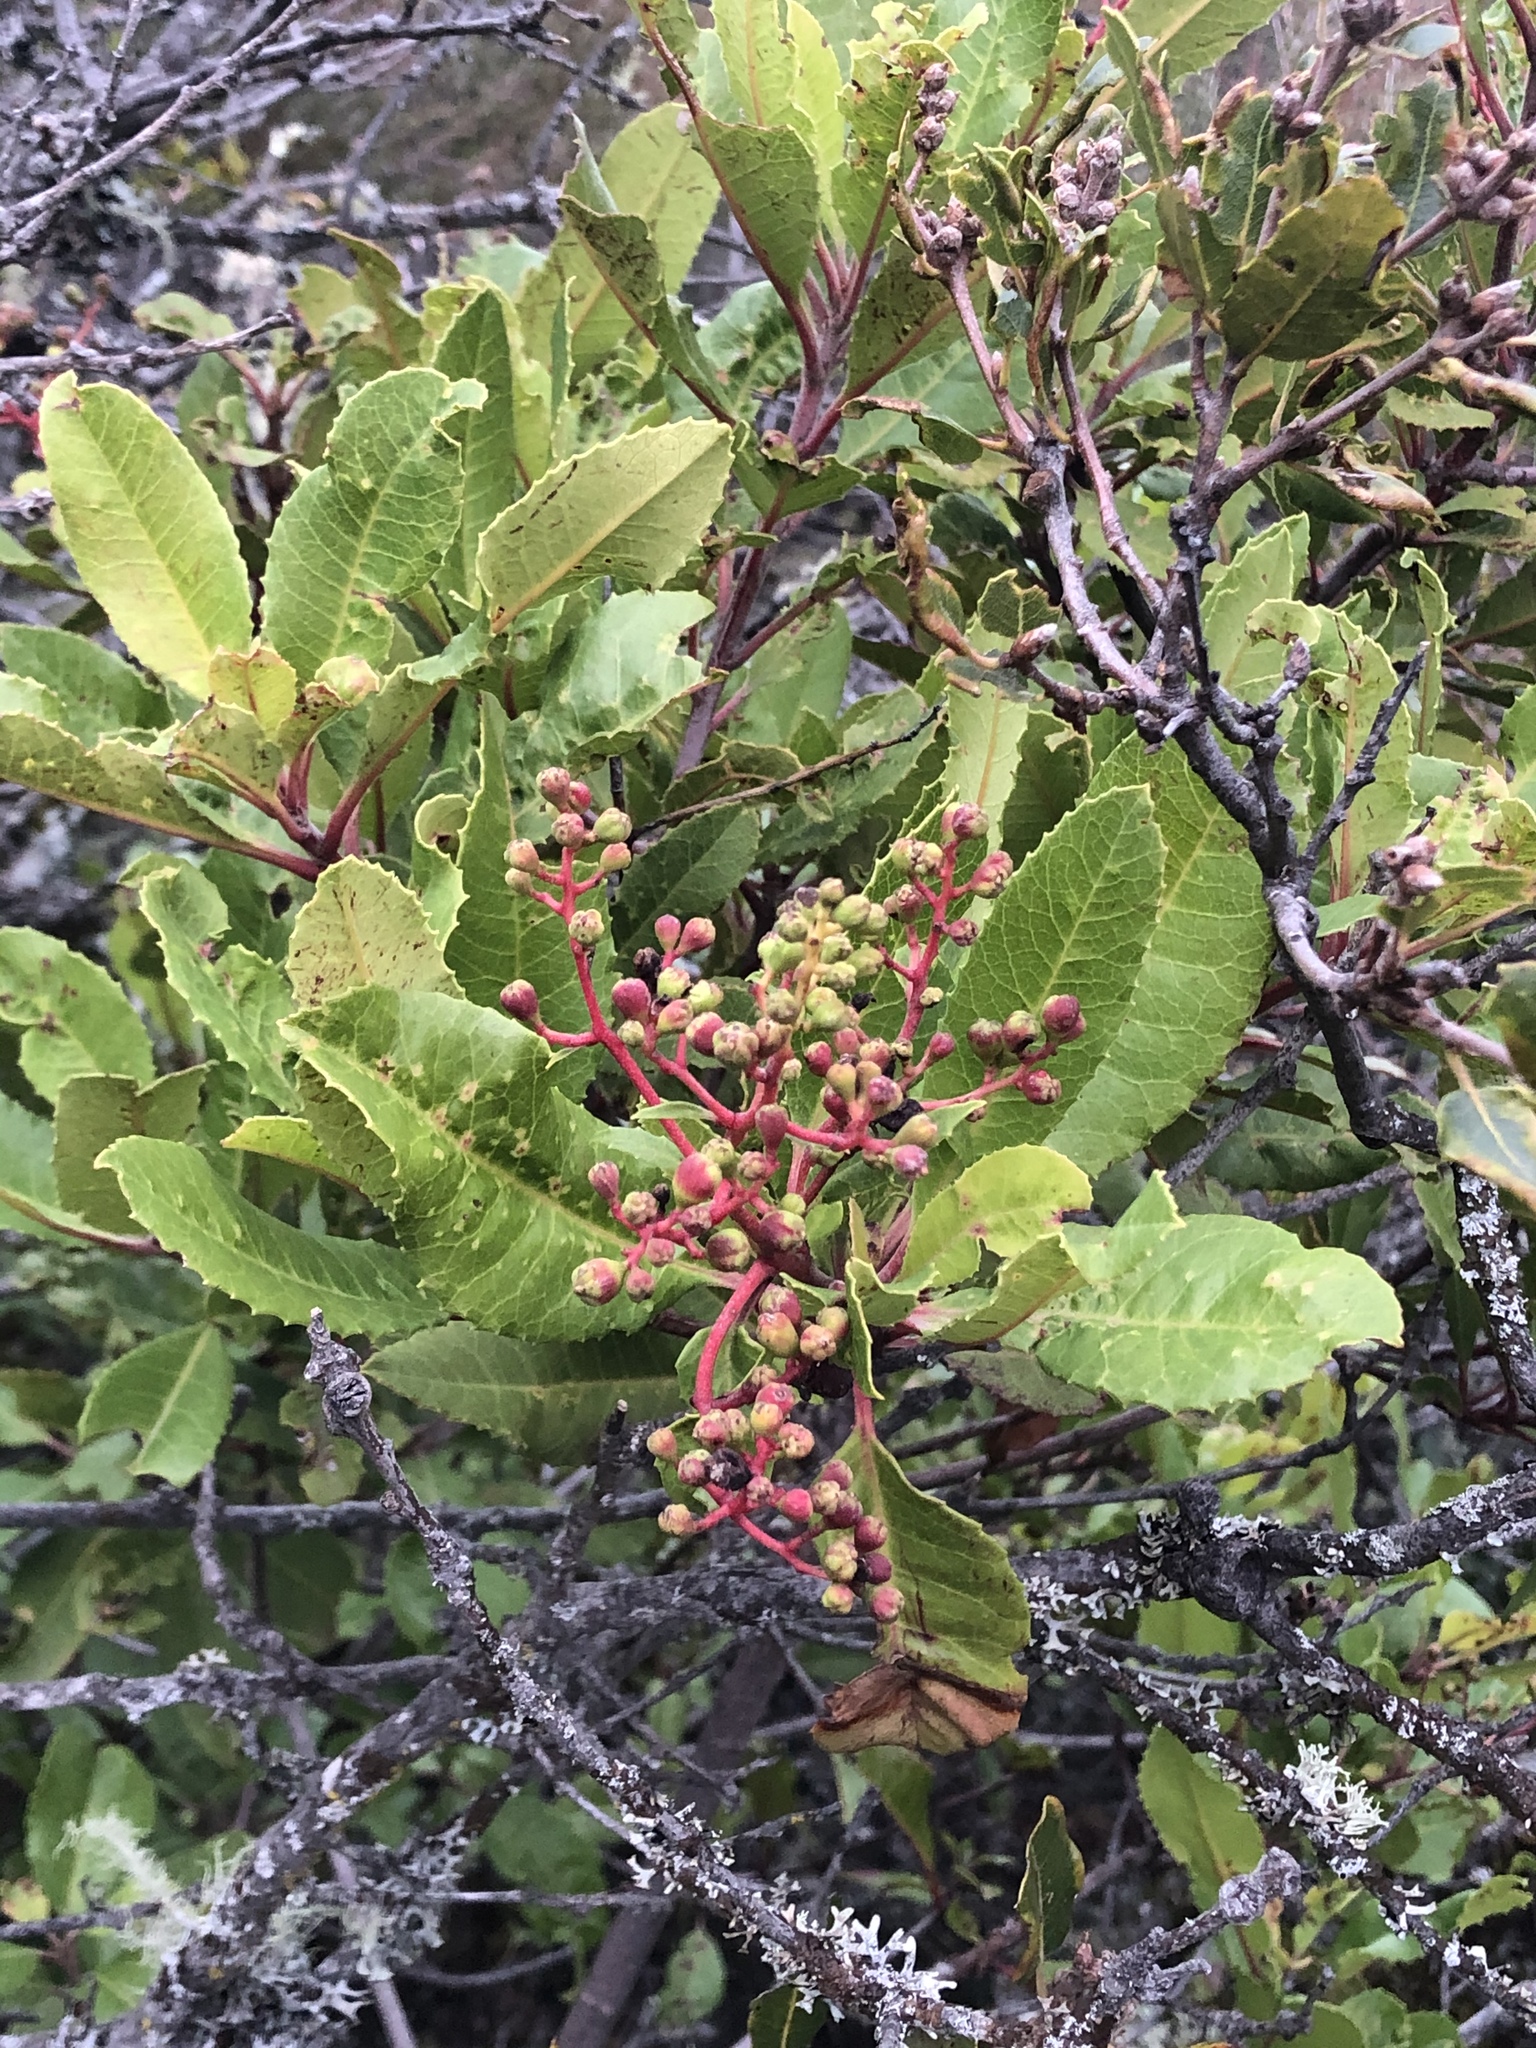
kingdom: Plantae
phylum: Tracheophyta
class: Magnoliopsida
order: Rosales
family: Rosaceae
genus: Heteromeles
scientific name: Heteromeles arbutifolia
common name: California-holly
